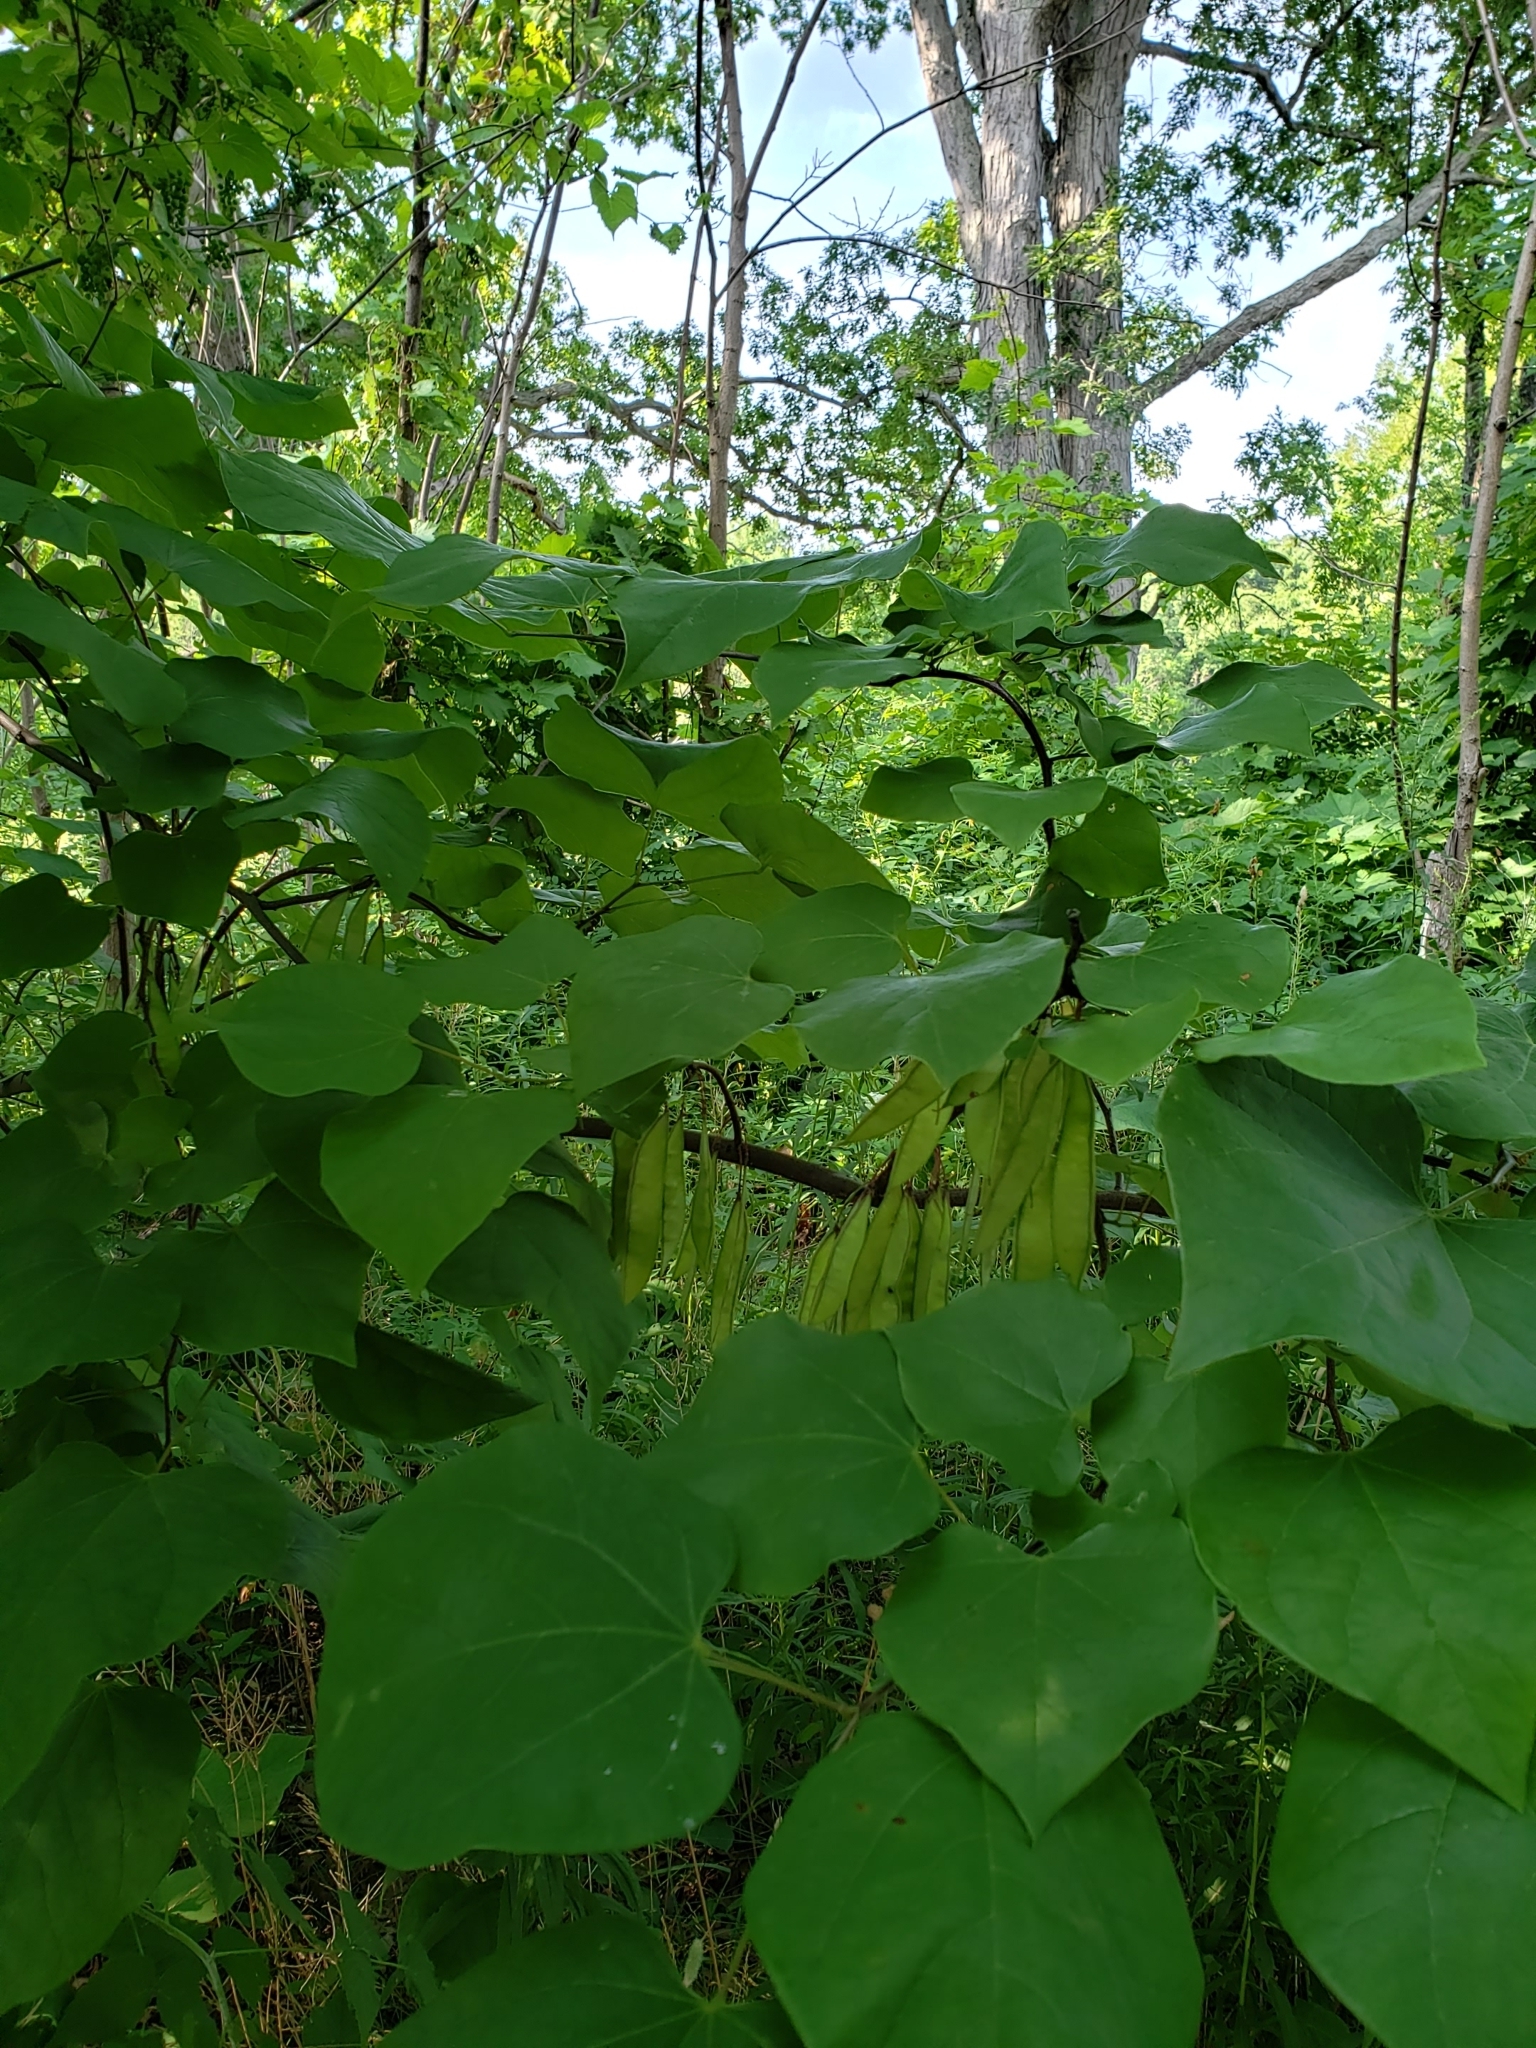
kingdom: Plantae
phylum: Tracheophyta
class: Magnoliopsida
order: Fabales
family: Fabaceae
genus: Cercis
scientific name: Cercis canadensis
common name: Eastern redbud
